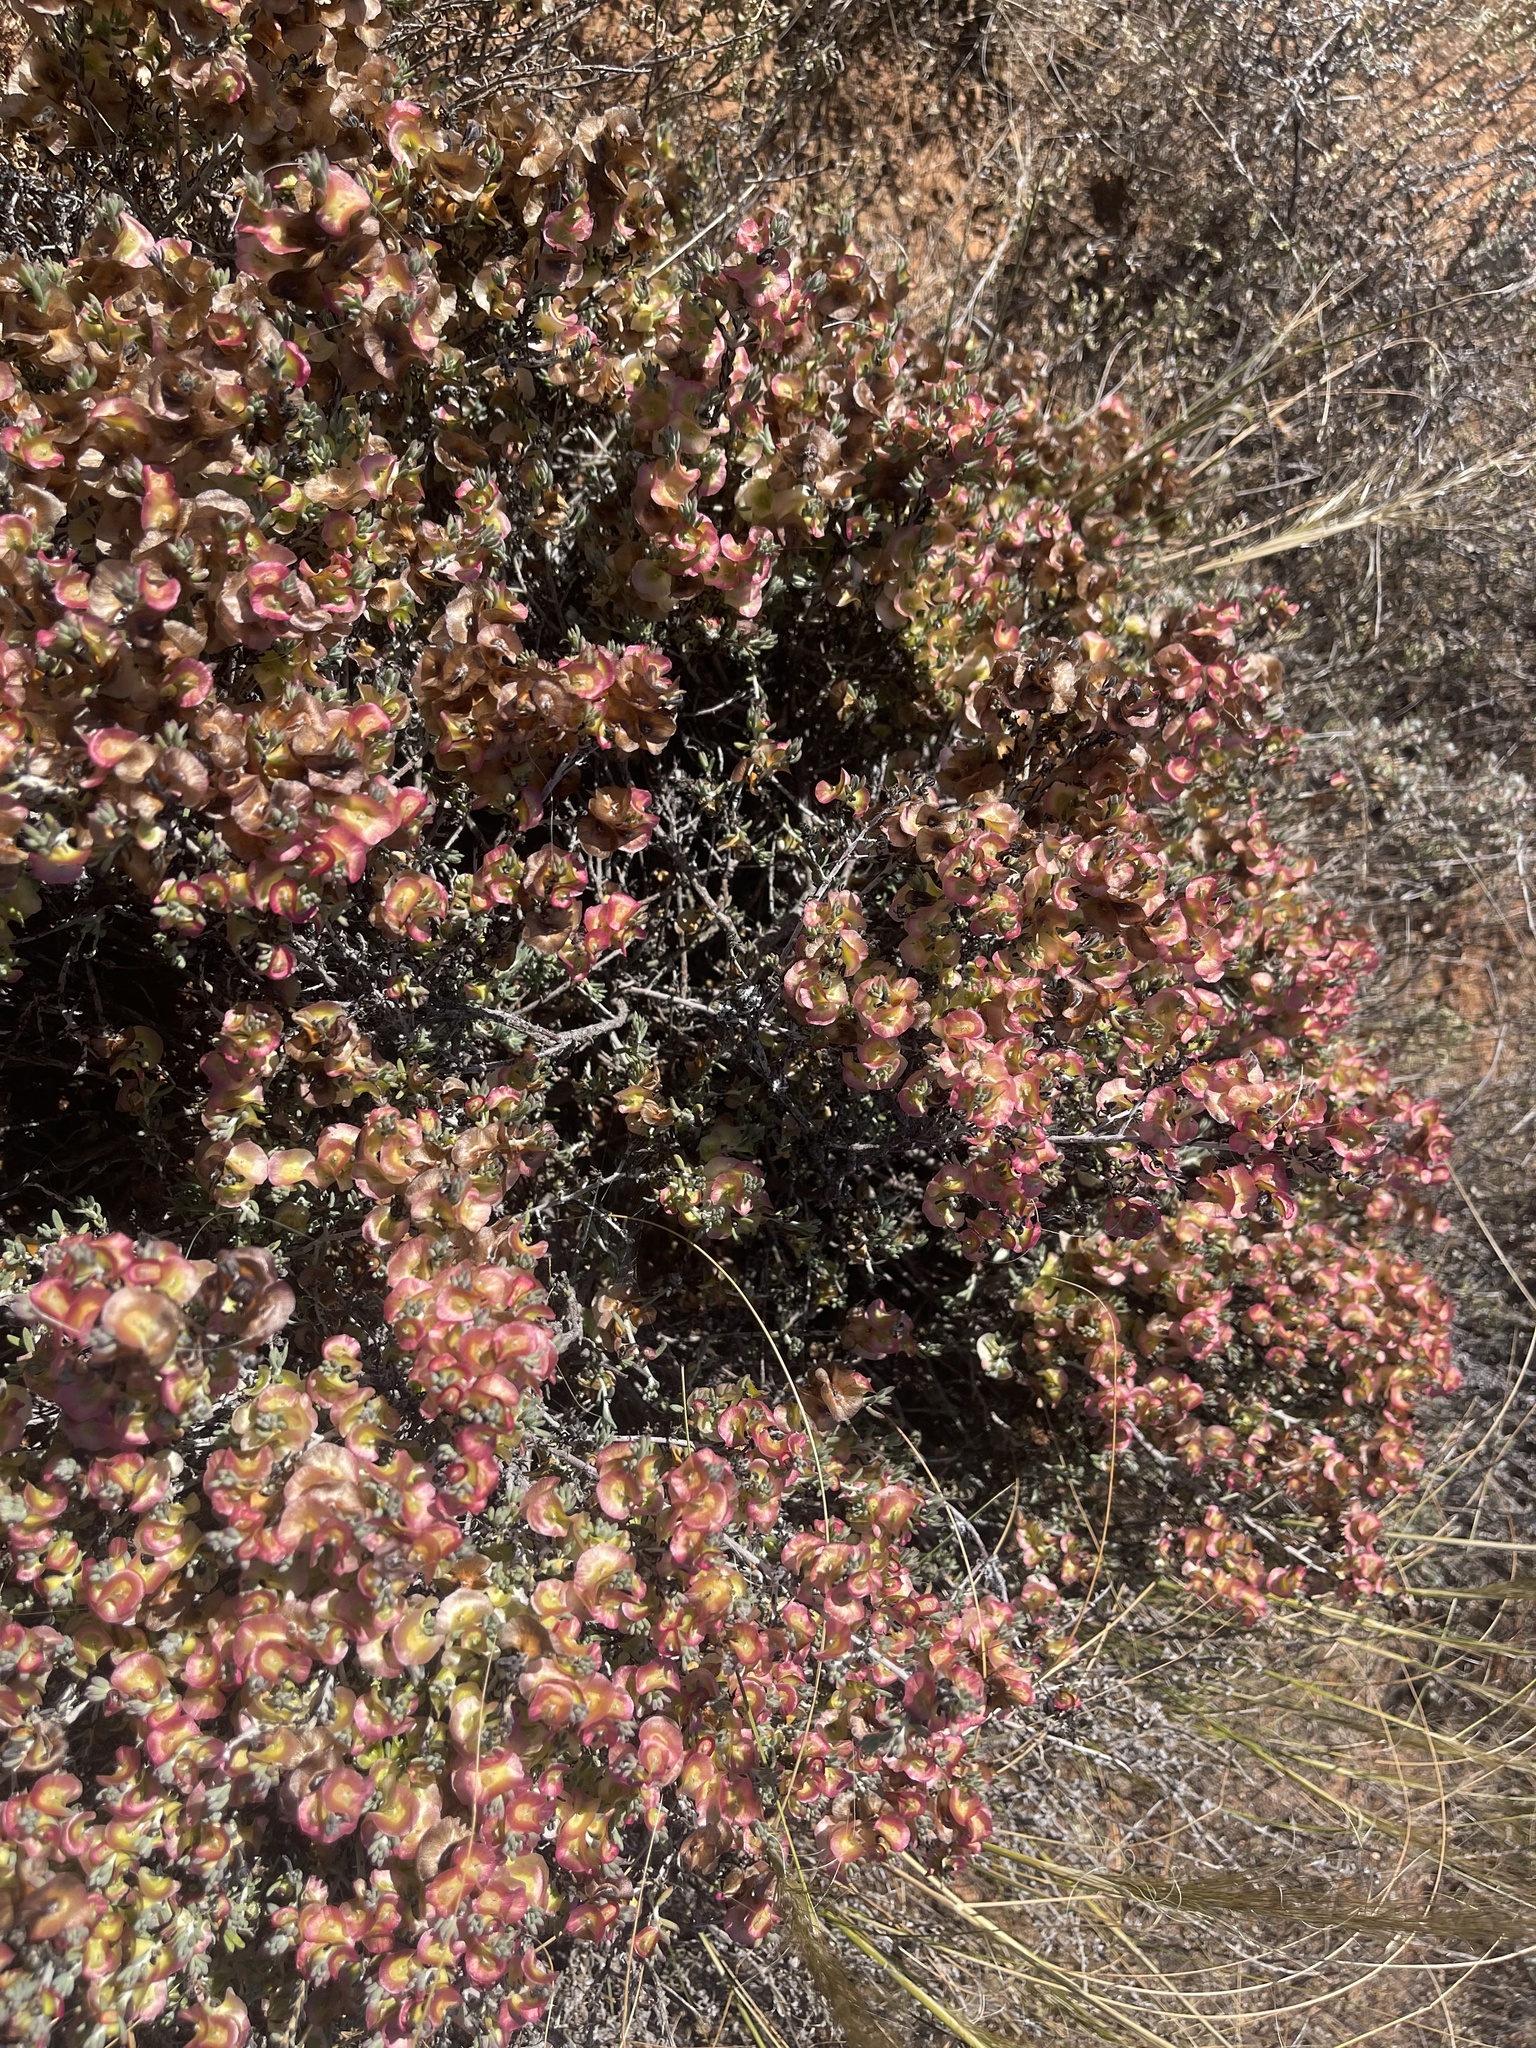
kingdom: Plantae
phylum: Tracheophyta
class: Magnoliopsida
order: Caryophyllales
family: Amaranthaceae
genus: Maireana
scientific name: Maireana erioclada
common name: Rosy bluebush
